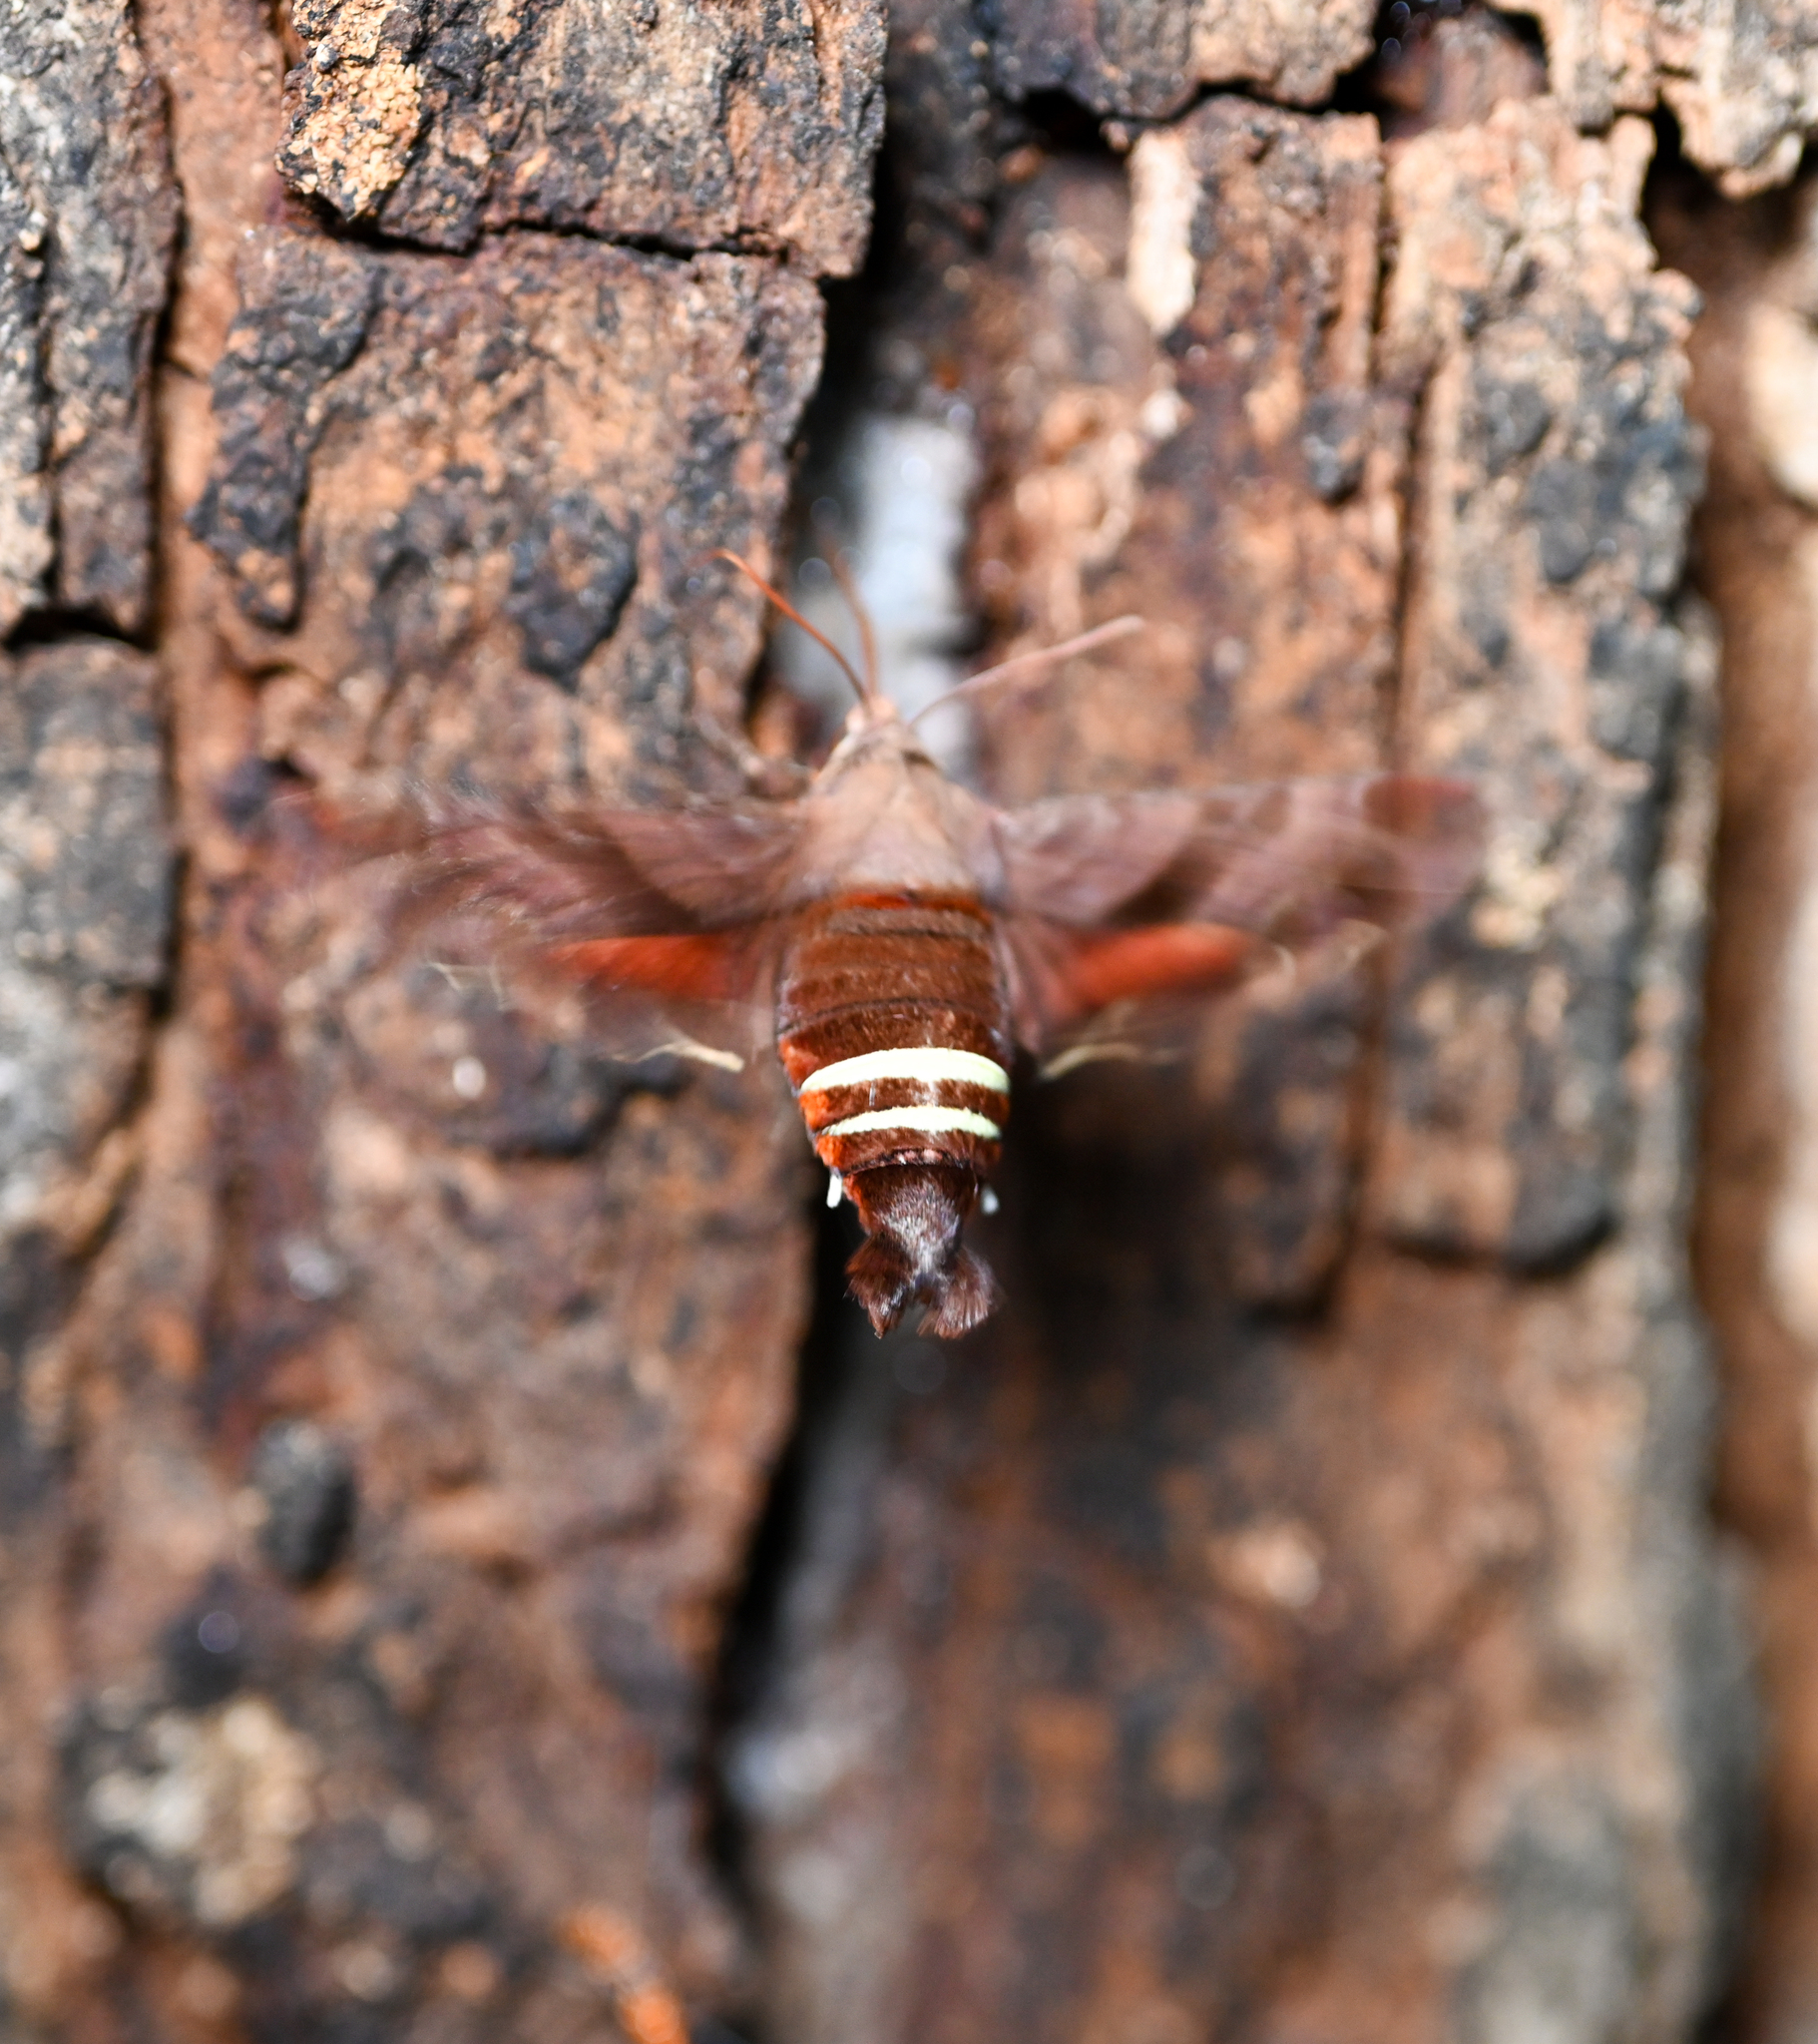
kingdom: Animalia
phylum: Arthropoda
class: Insecta
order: Lepidoptera
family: Sphingidae
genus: Amphion
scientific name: Amphion floridensis
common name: Nessus sphinx
